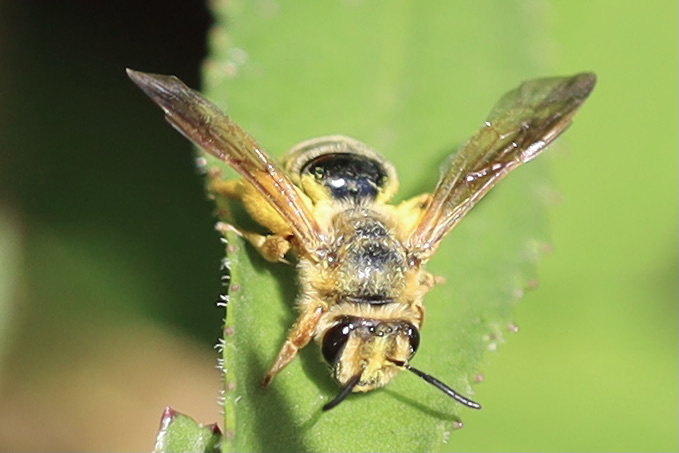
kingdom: Animalia
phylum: Arthropoda
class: Insecta
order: Hymenoptera
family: Andrenidae
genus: Andrena
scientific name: Andrena prunorum
